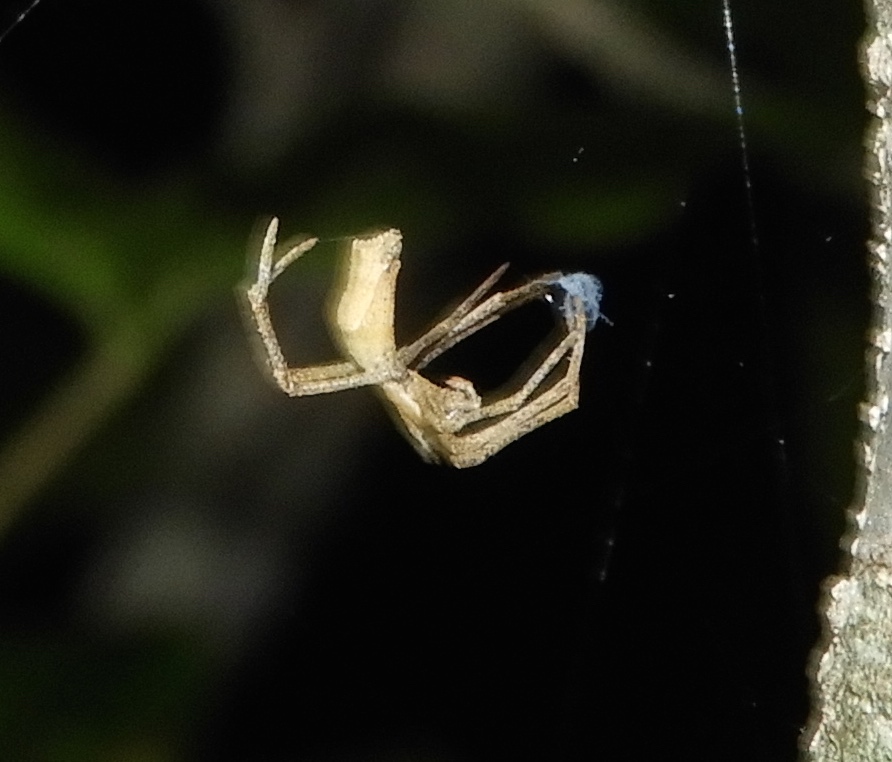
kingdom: Animalia
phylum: Arthropoda
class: Arachnida
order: Araneae
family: Deinopidae
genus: Deinopis
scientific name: Deinopis aurita
